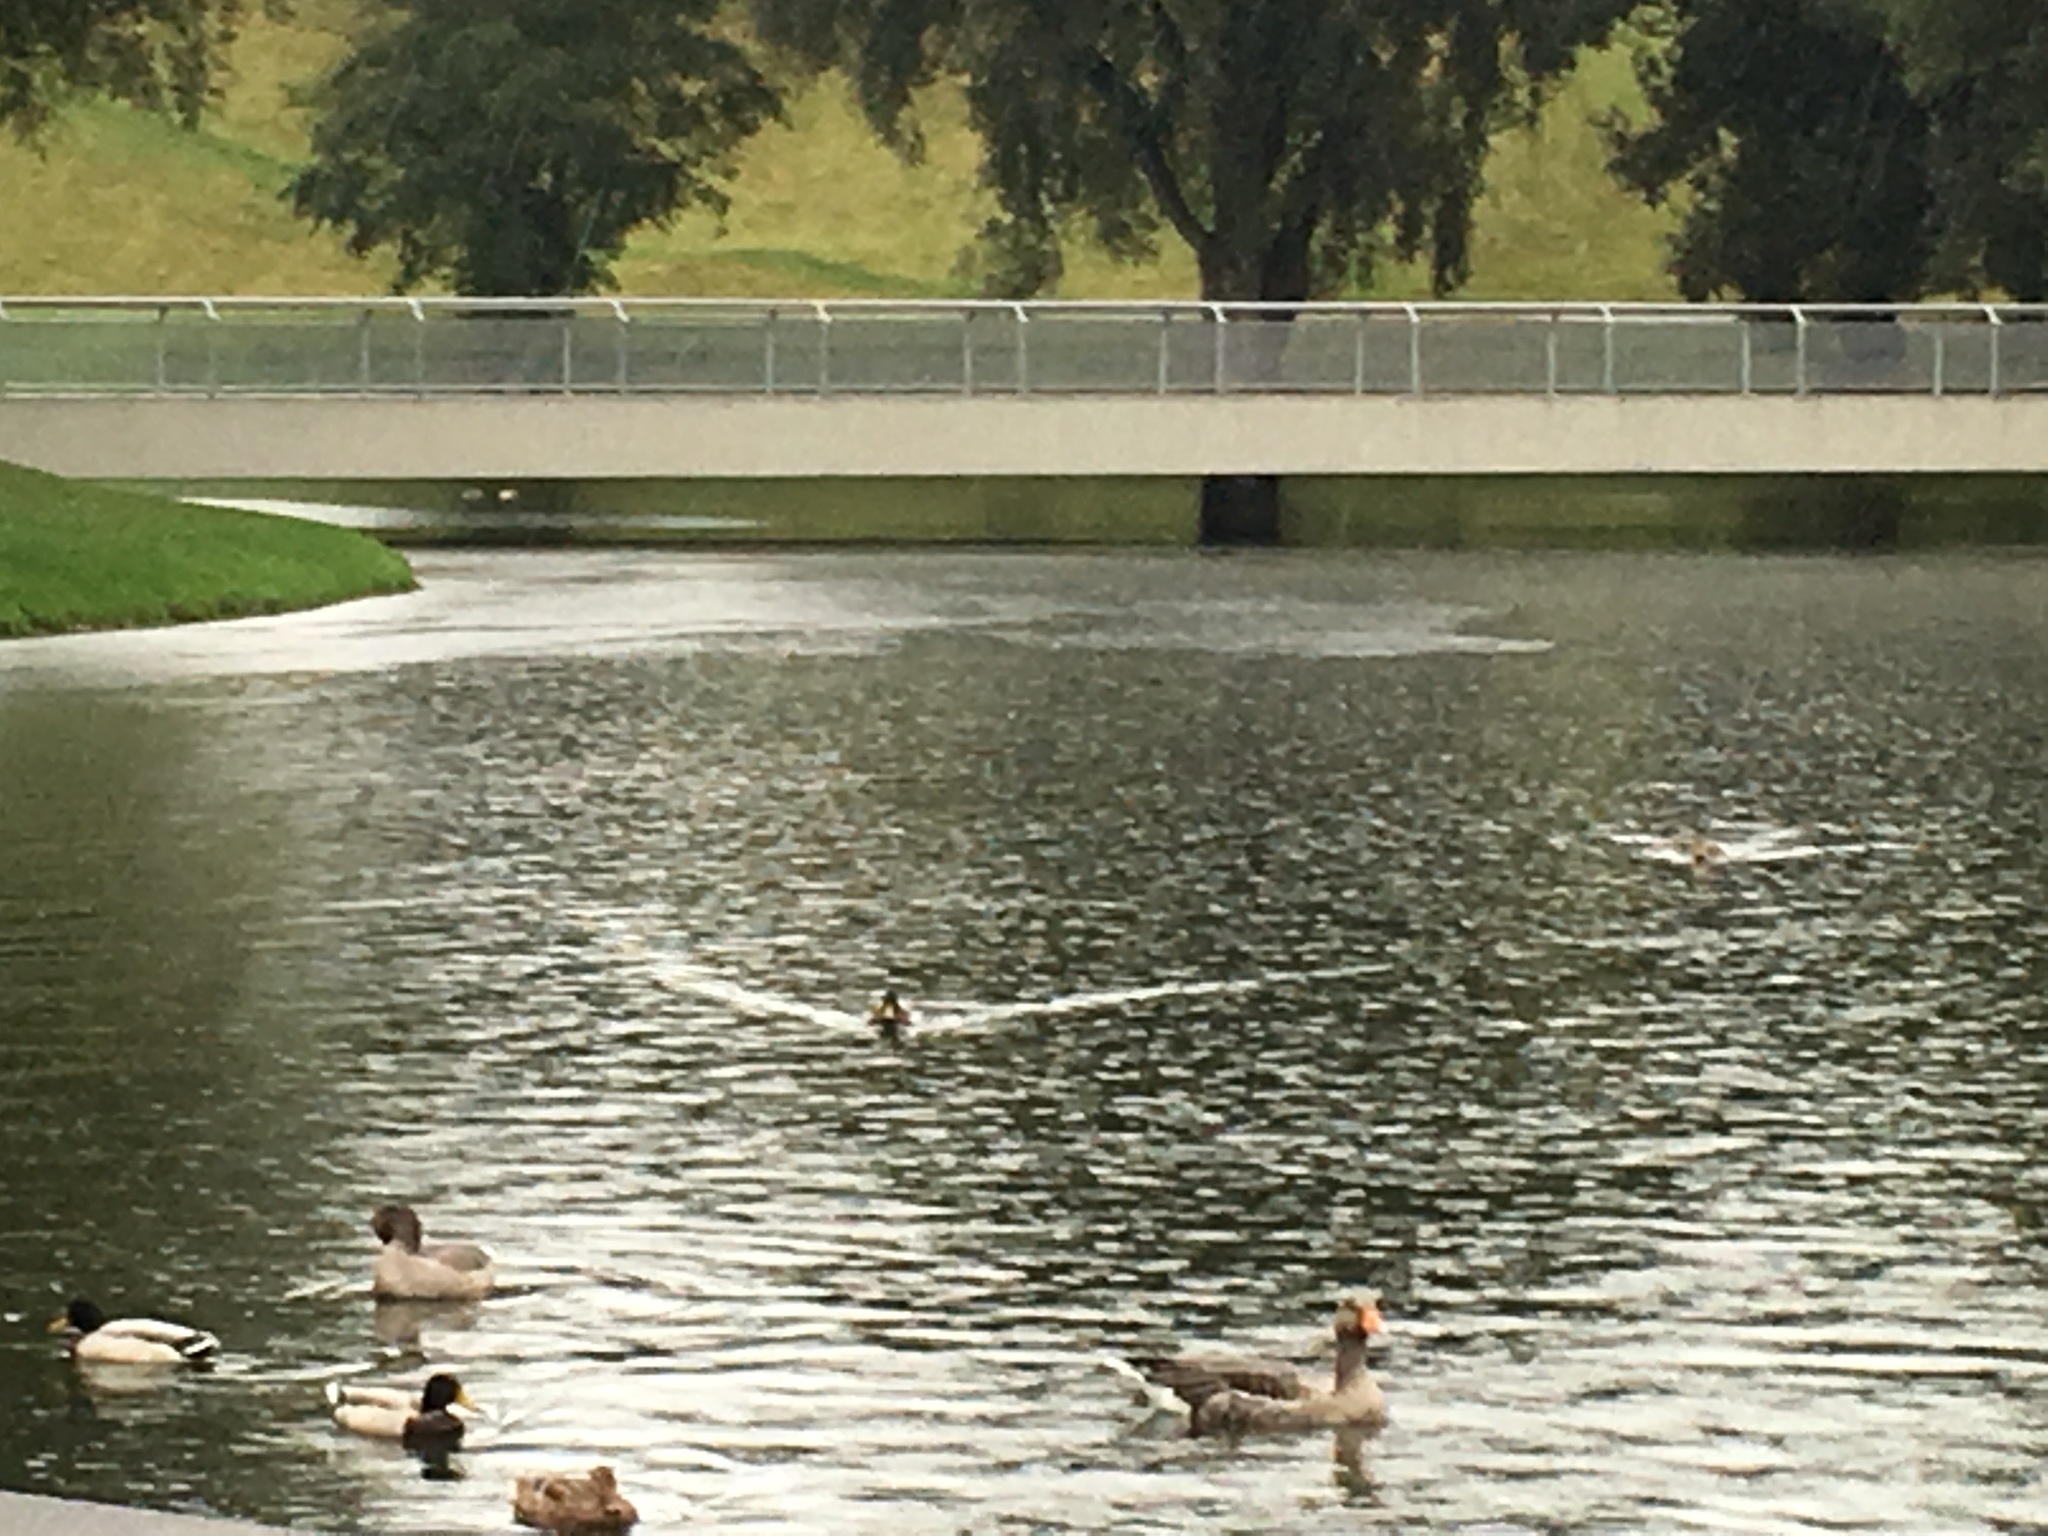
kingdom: Animalia
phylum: Chordata
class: Aves
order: Anseriformes
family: Anatidae
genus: Anser
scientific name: Anser anser
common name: Greylag goose
